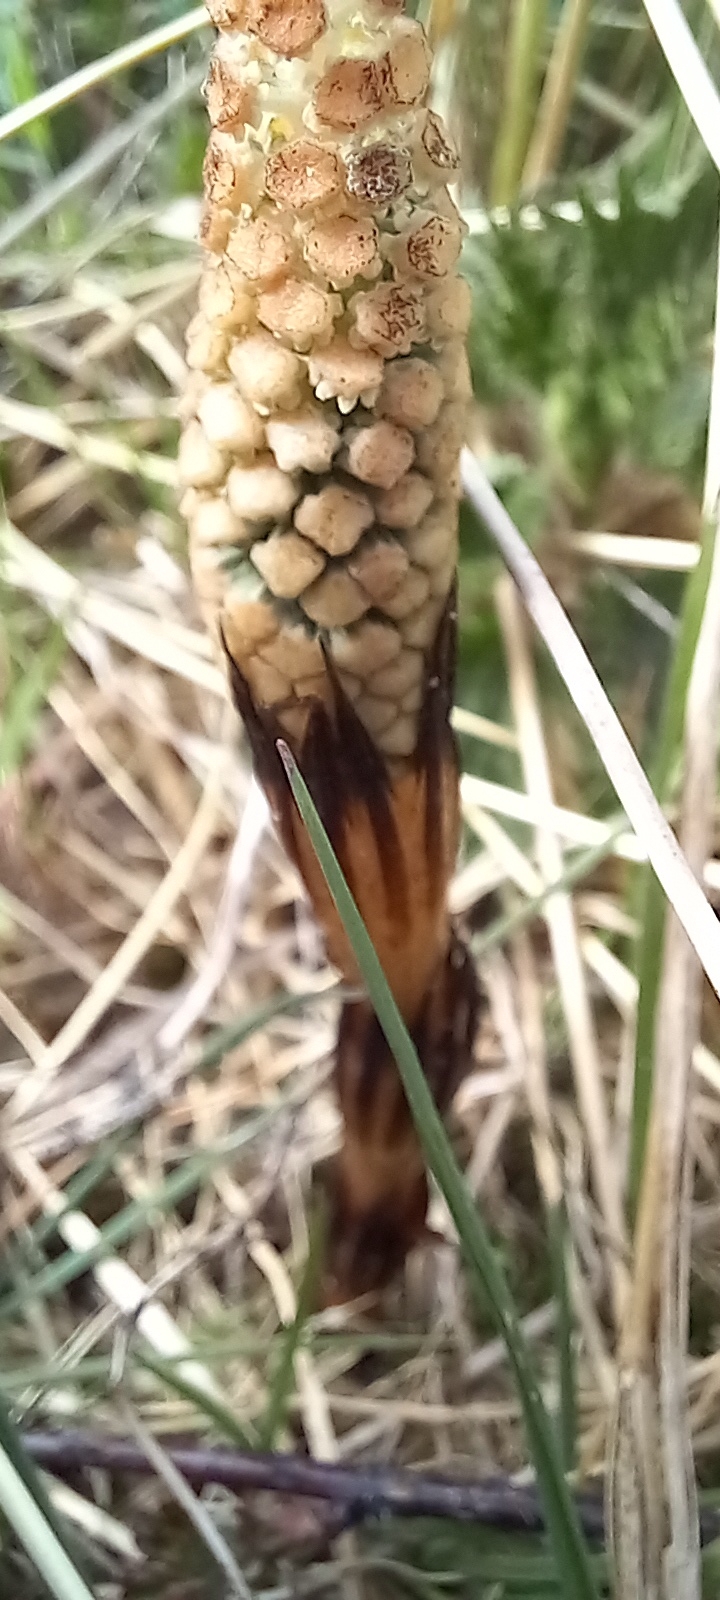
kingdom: Plantae
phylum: Tracheophyta
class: Polypodiopsida
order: Equisetales
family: Equisetaceae
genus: Equisetum
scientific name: Equisetum arvense
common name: Field horsetail
